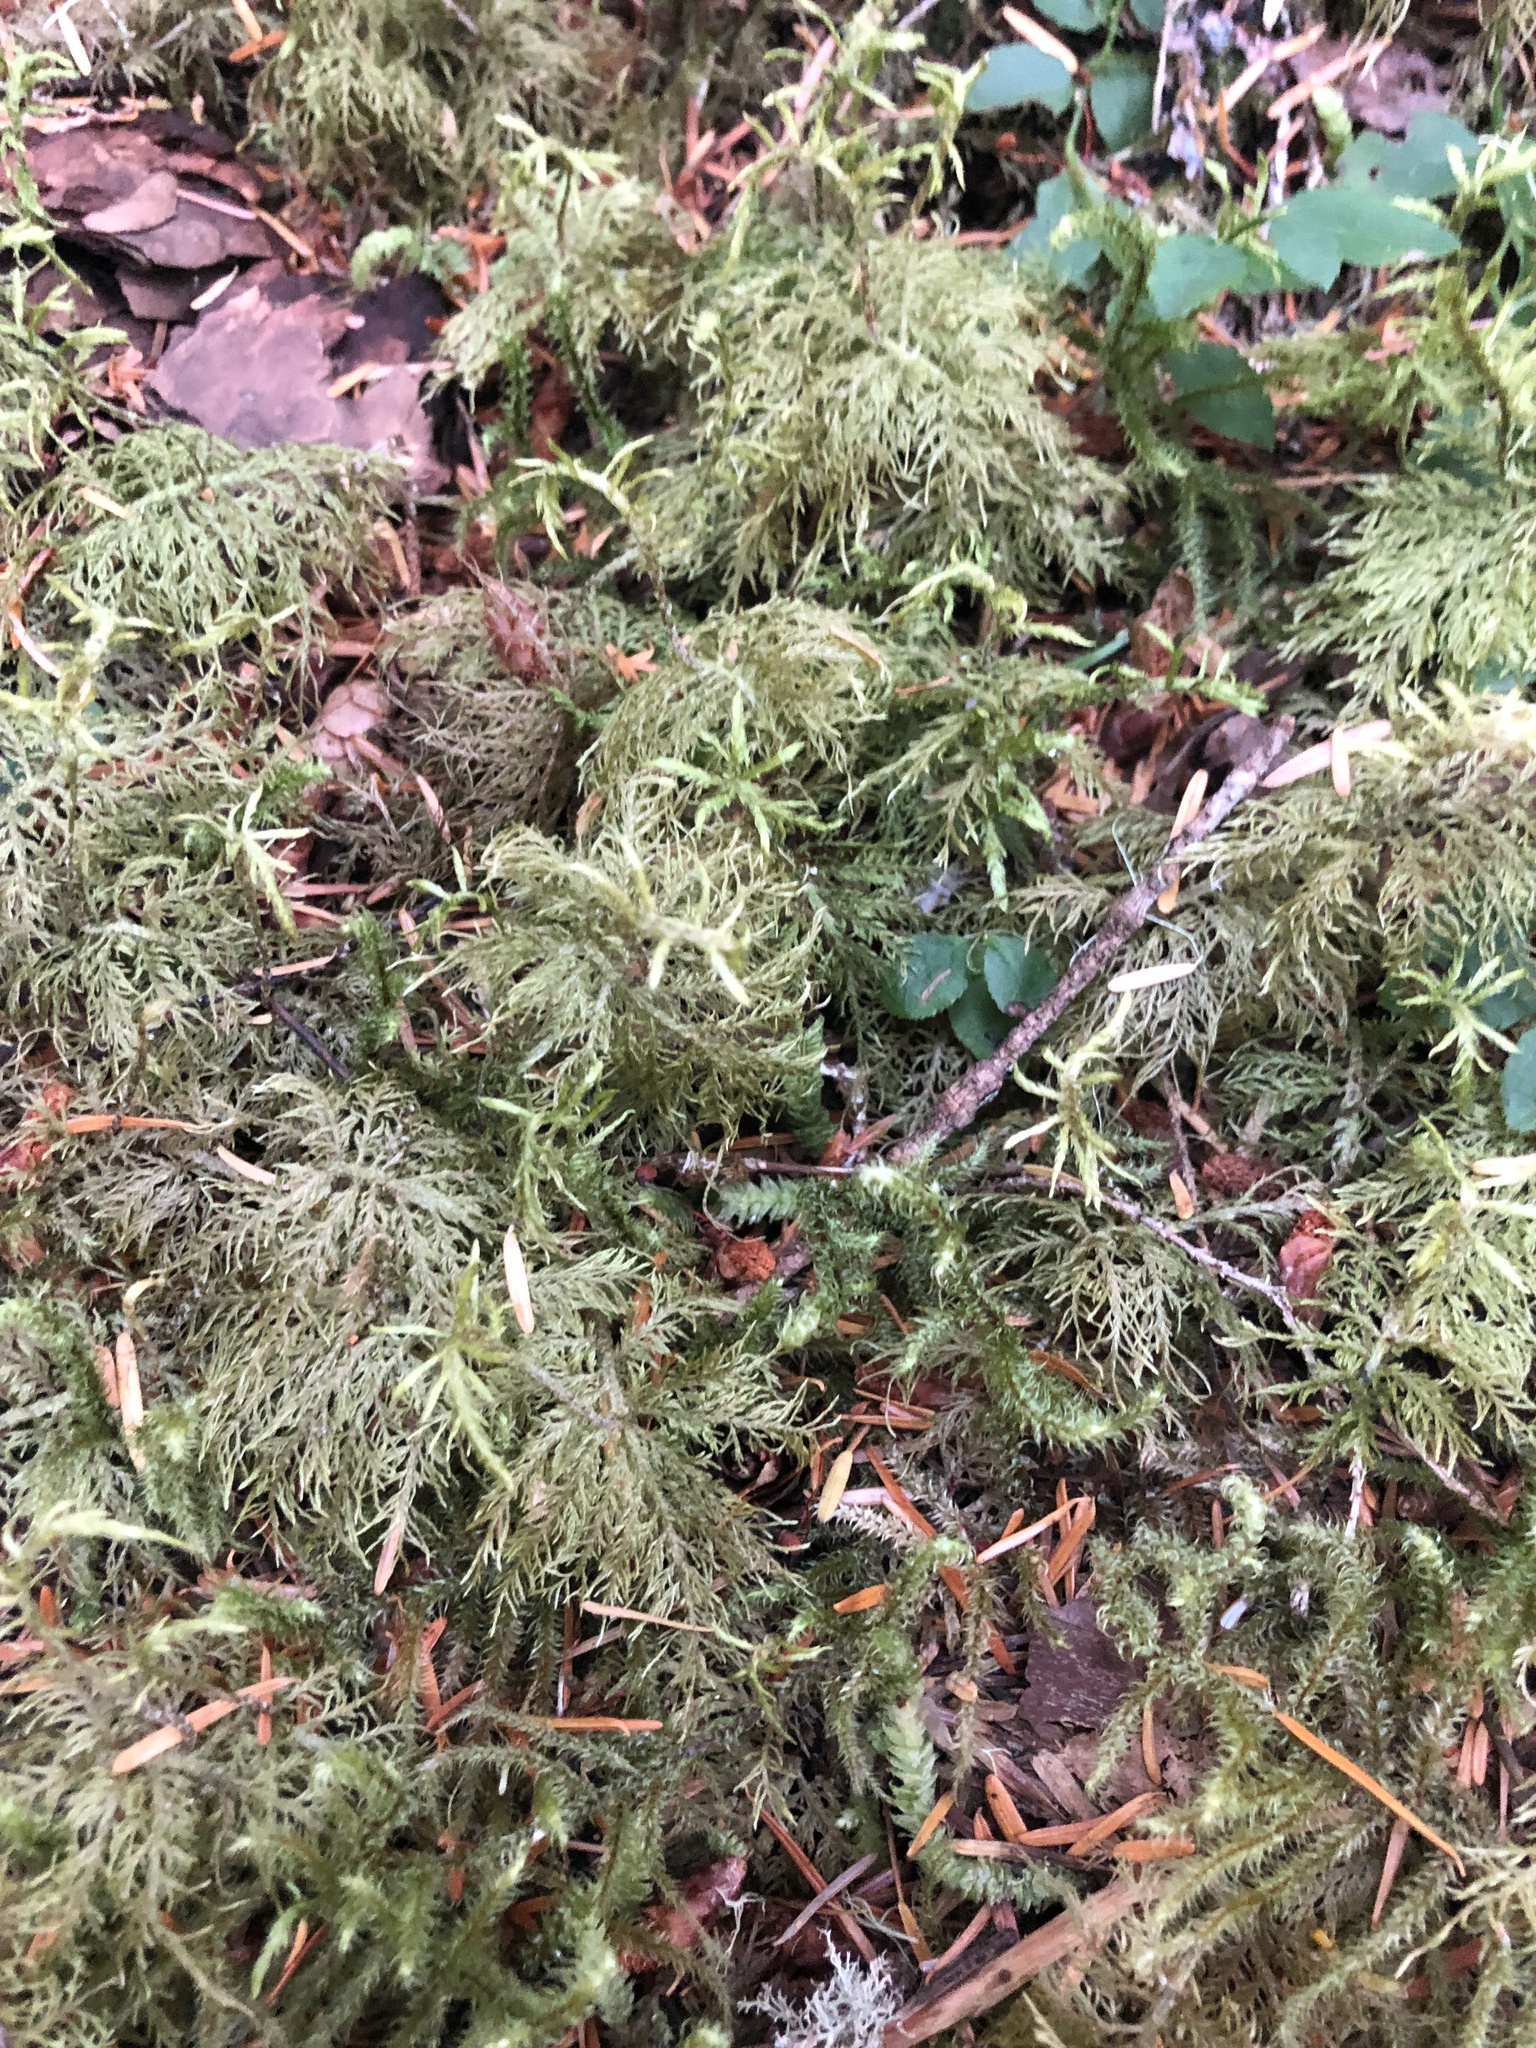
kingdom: Plantae
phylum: Bryophyta
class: Bryopsida
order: Hypnales
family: Hylocomiaceae
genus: Hylocomium
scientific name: Hylocomium splendens
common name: Stairstep moss
